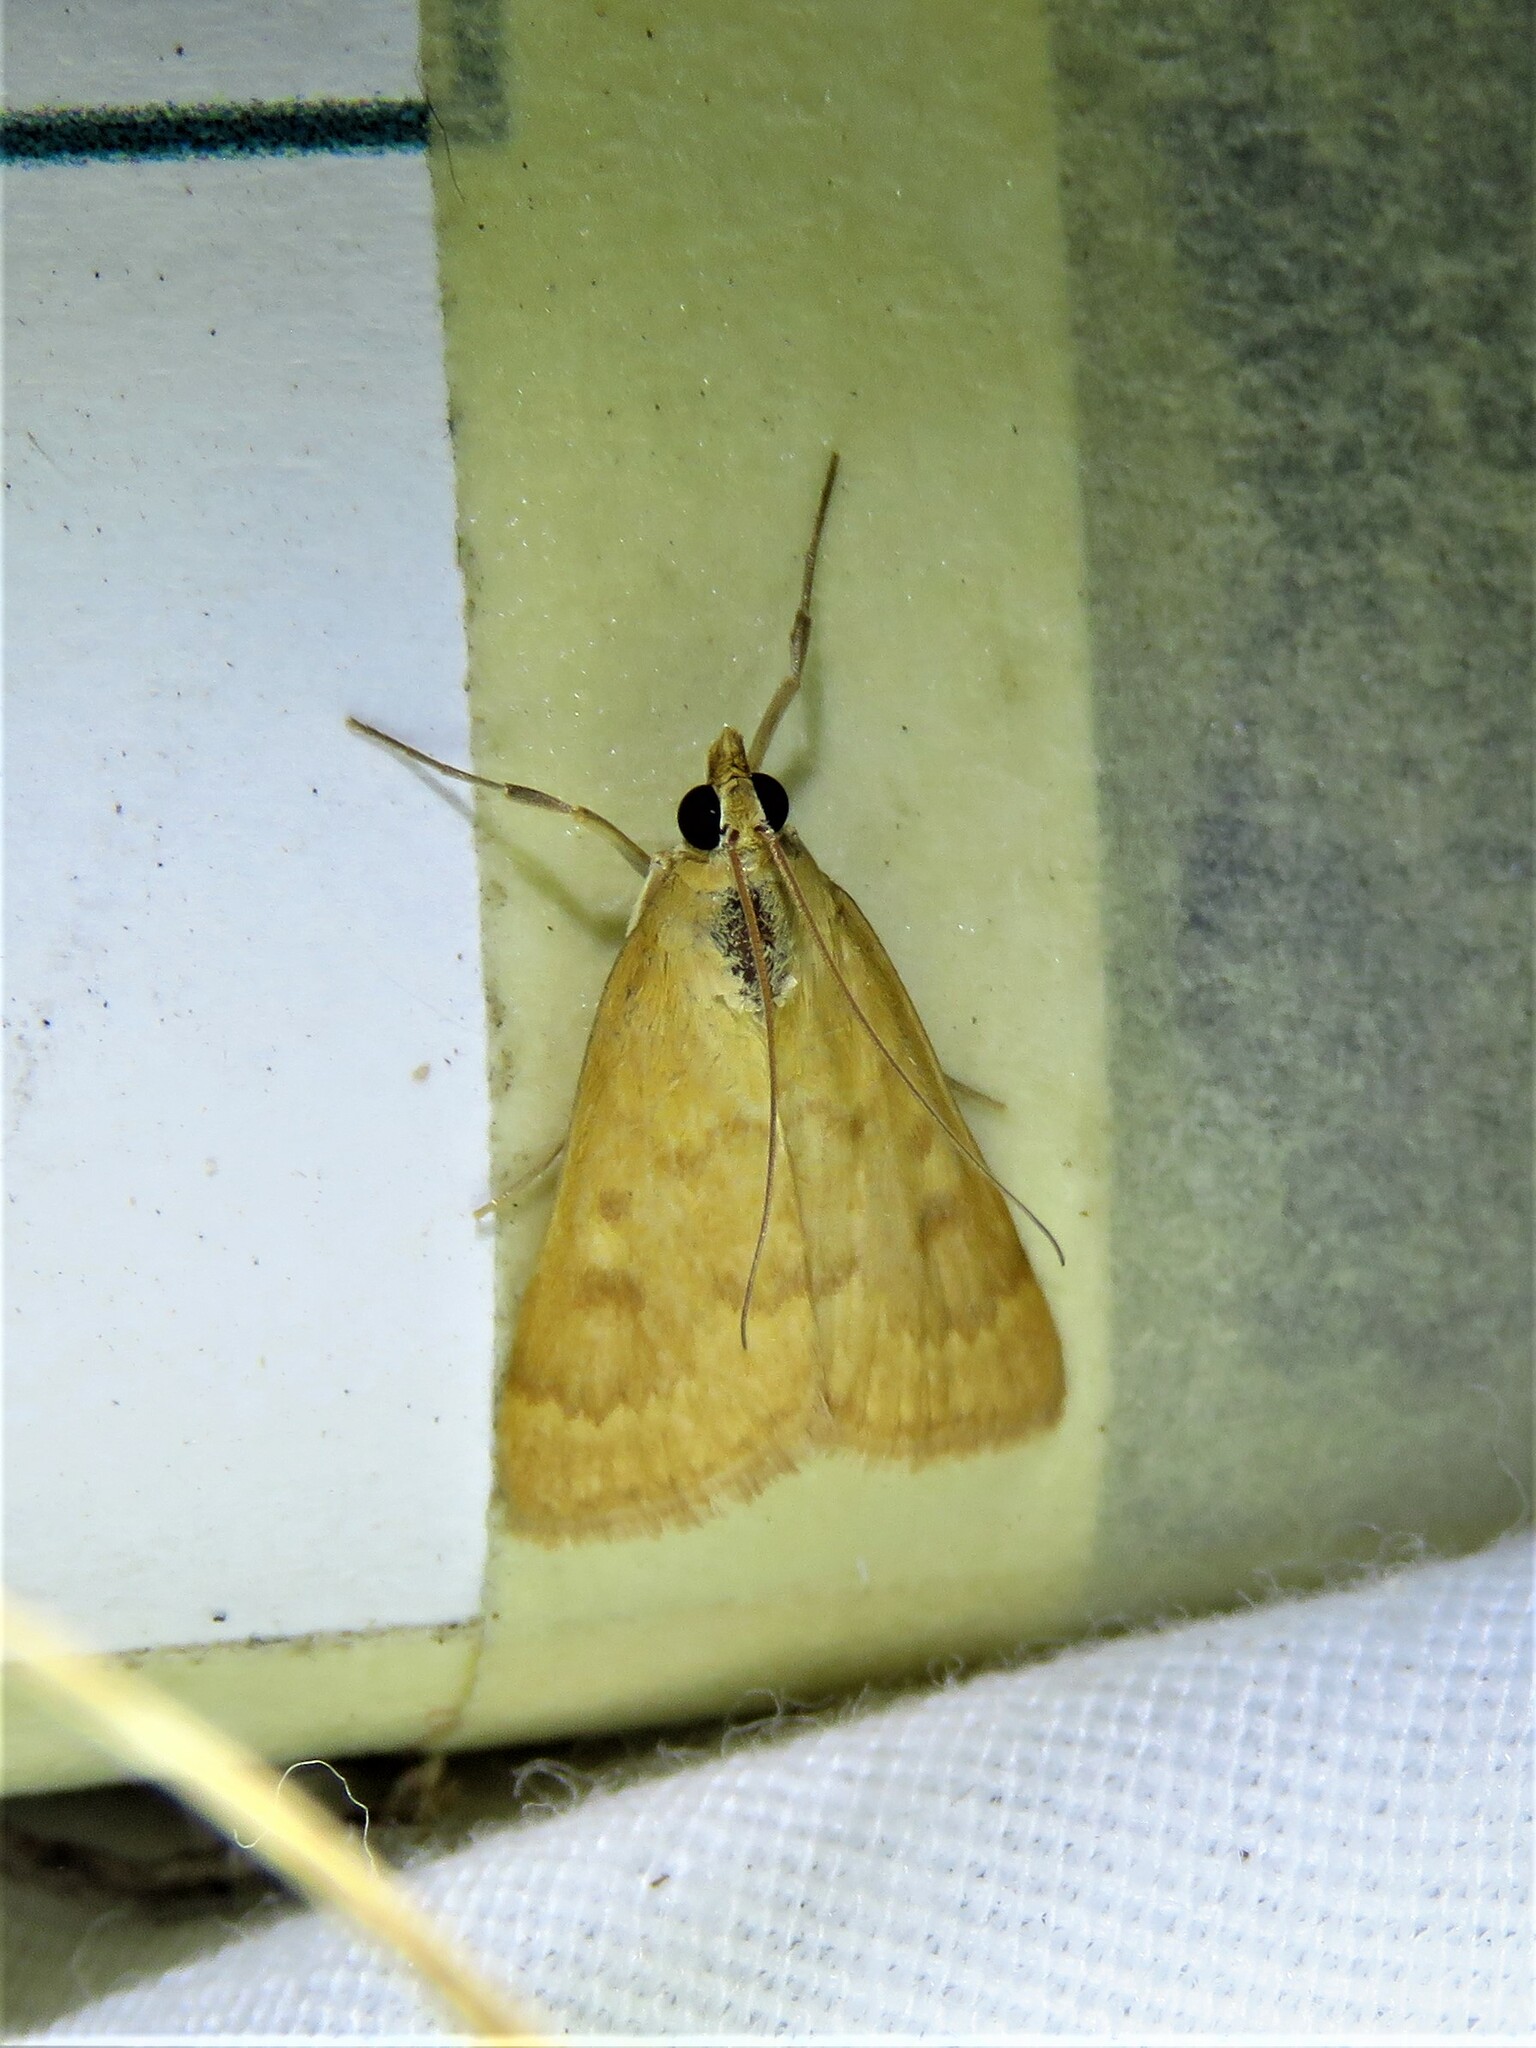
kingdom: Animalia
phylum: Arthropoda
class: Insecta
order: Lepidoptera
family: Crambidae
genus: Achyra
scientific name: Achyra rantalis
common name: Garden webworm
